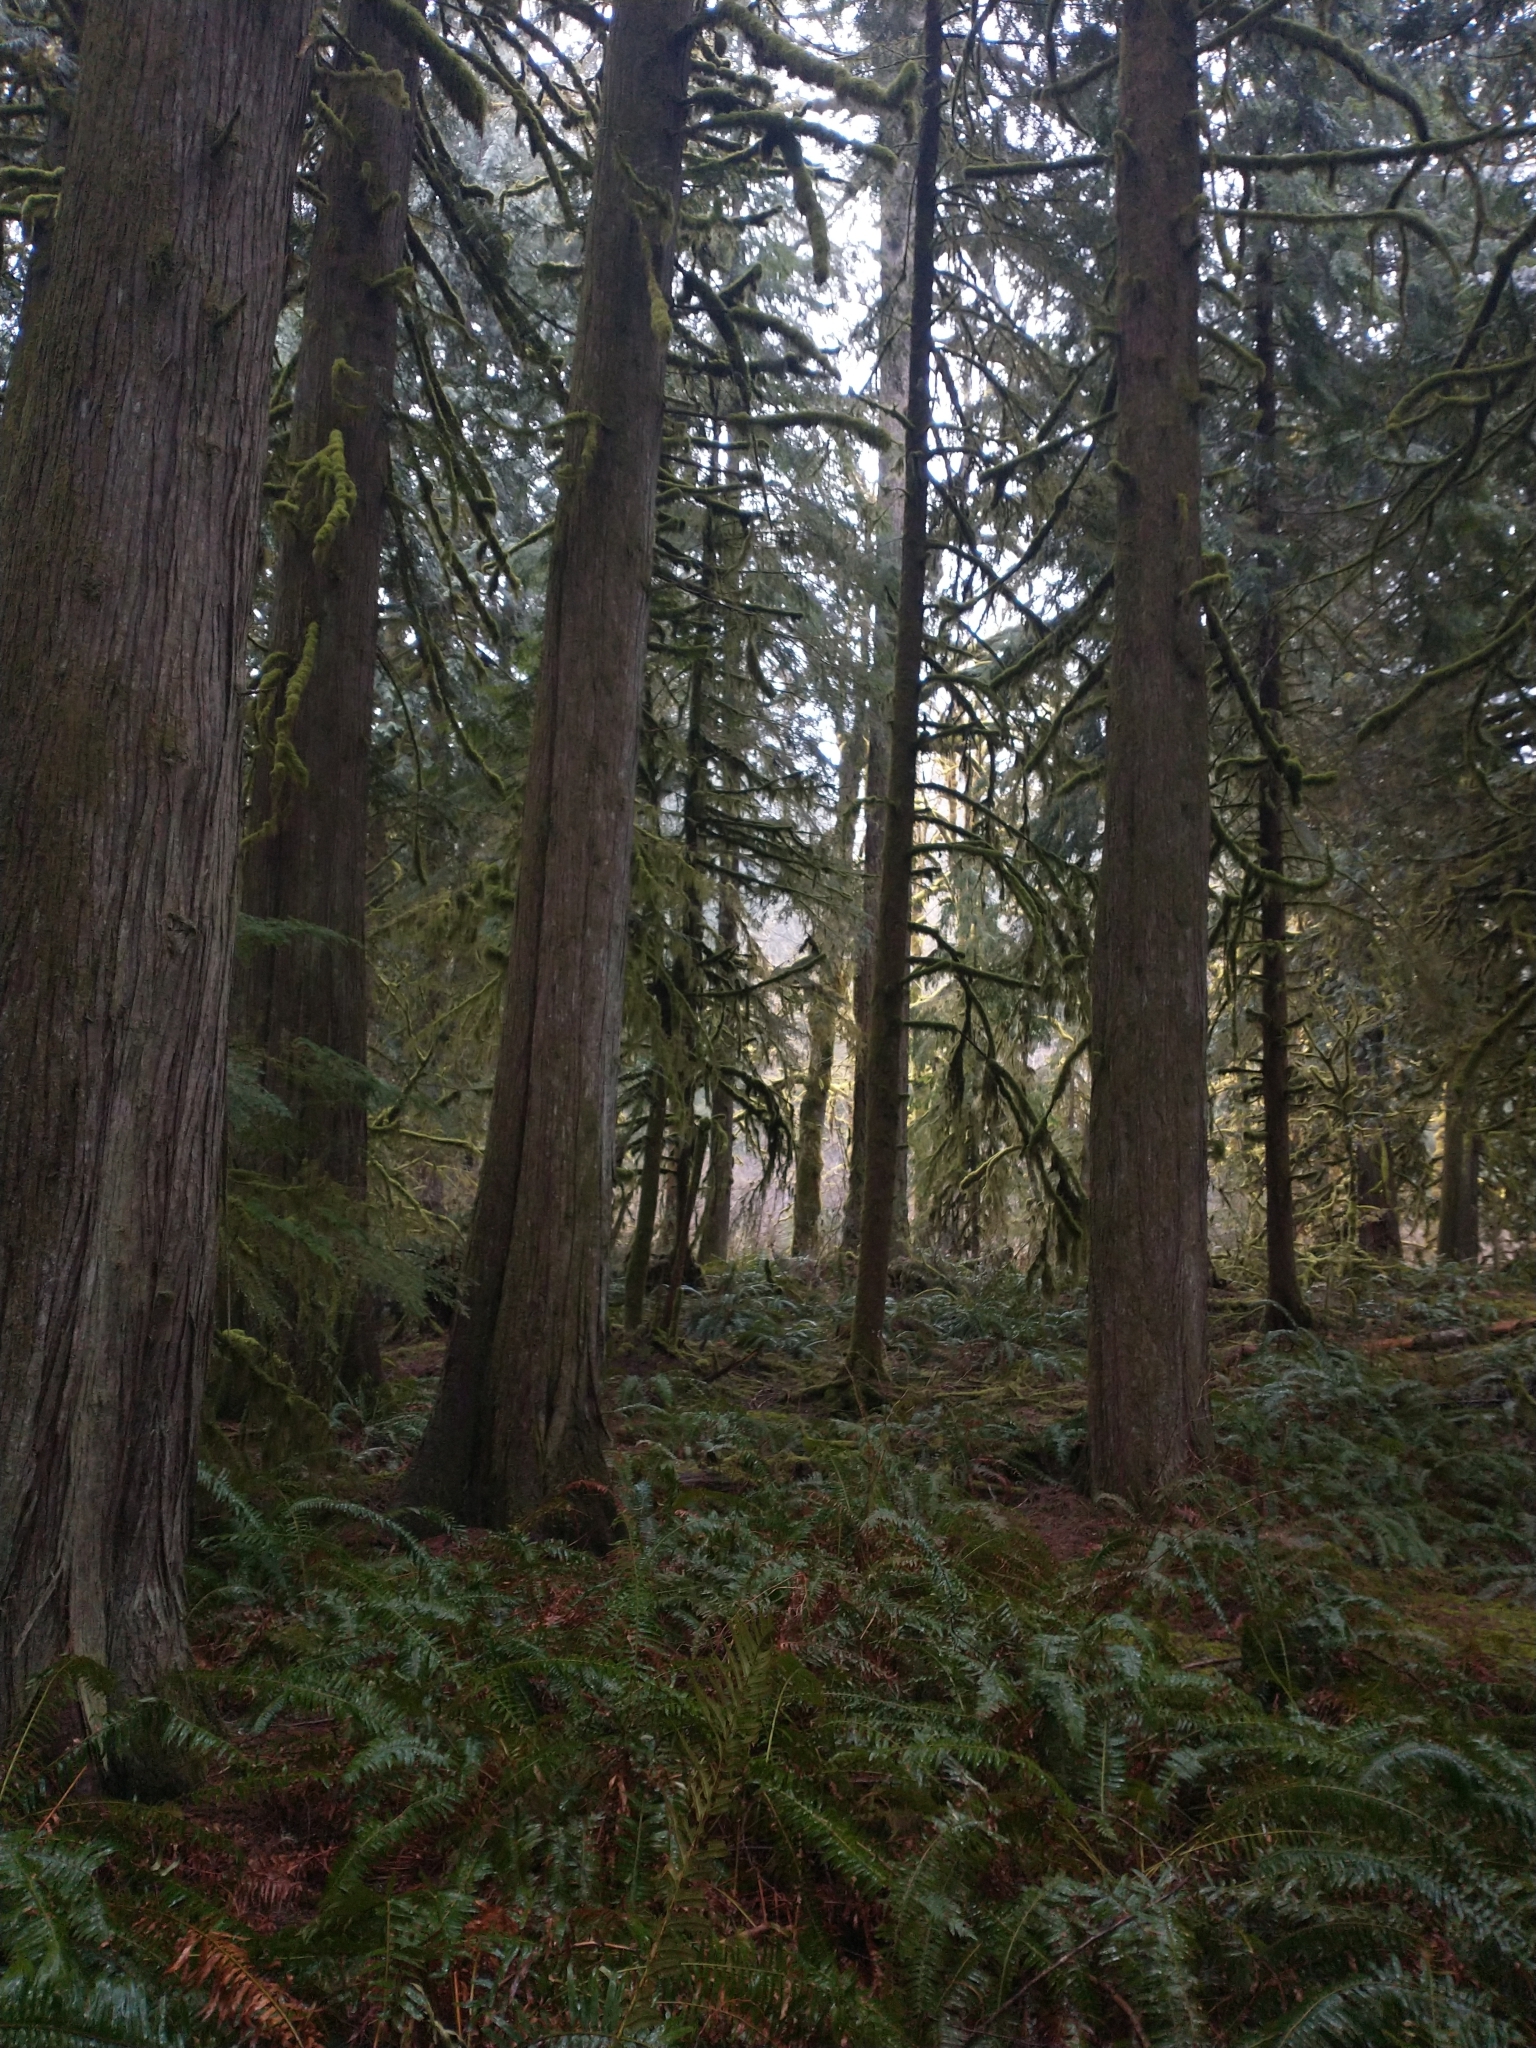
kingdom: Plantae
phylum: Tracheophyta
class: Pinopsida
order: Pinales
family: Cupressaceae
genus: Thuja
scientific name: Thuja plicata
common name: Western red-cedar
